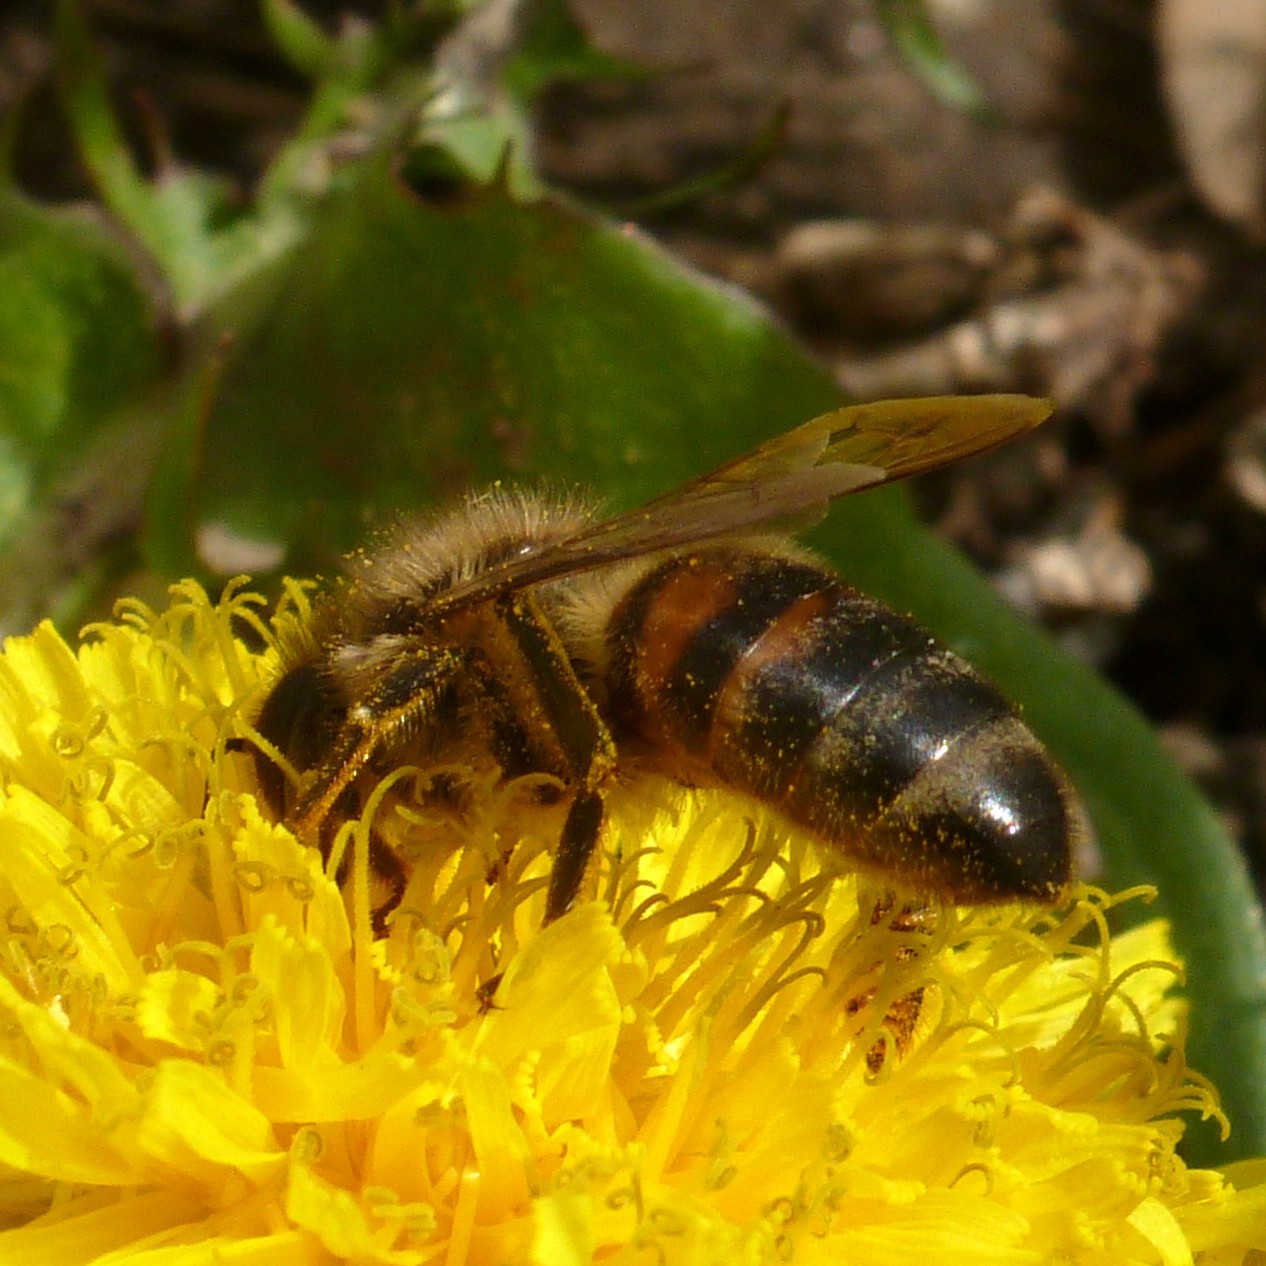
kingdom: Animalia
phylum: Arthropoda
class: Insecta
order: Hymenoptera
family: Apidae
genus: Apis
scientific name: Apis mellifera
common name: Honey bee
